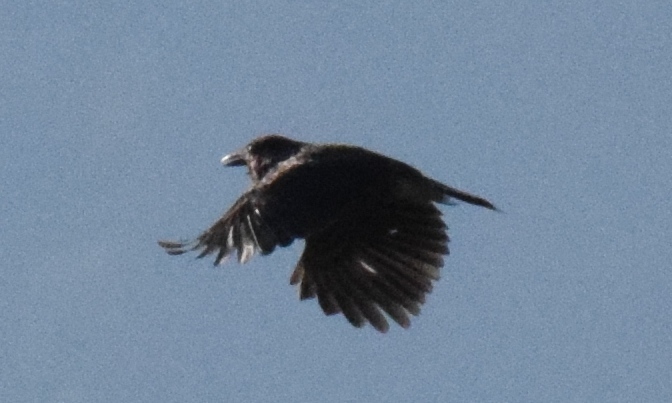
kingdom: Animalia
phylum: Chordata
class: Aves
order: Passeriformes
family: Corvidae
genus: Corvus
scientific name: Corvus corone
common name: Carrion crow
